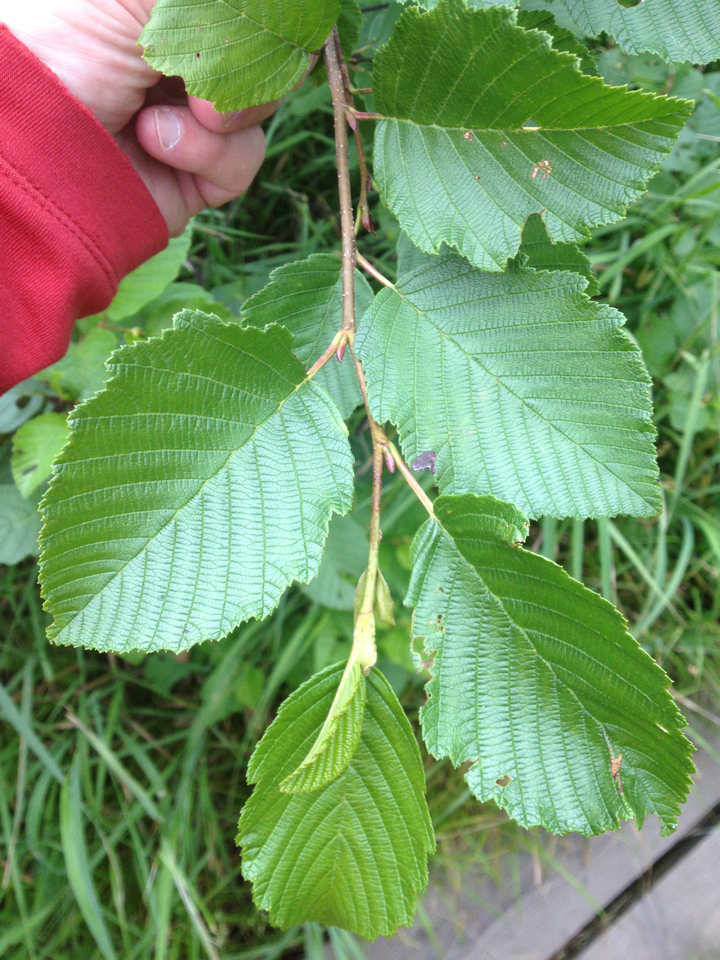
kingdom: Plantae
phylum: Tracheophyta
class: Magnoliopsida
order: Fagales
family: Betulaceae
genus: Alnus
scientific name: Alnus incana
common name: Grey alder
